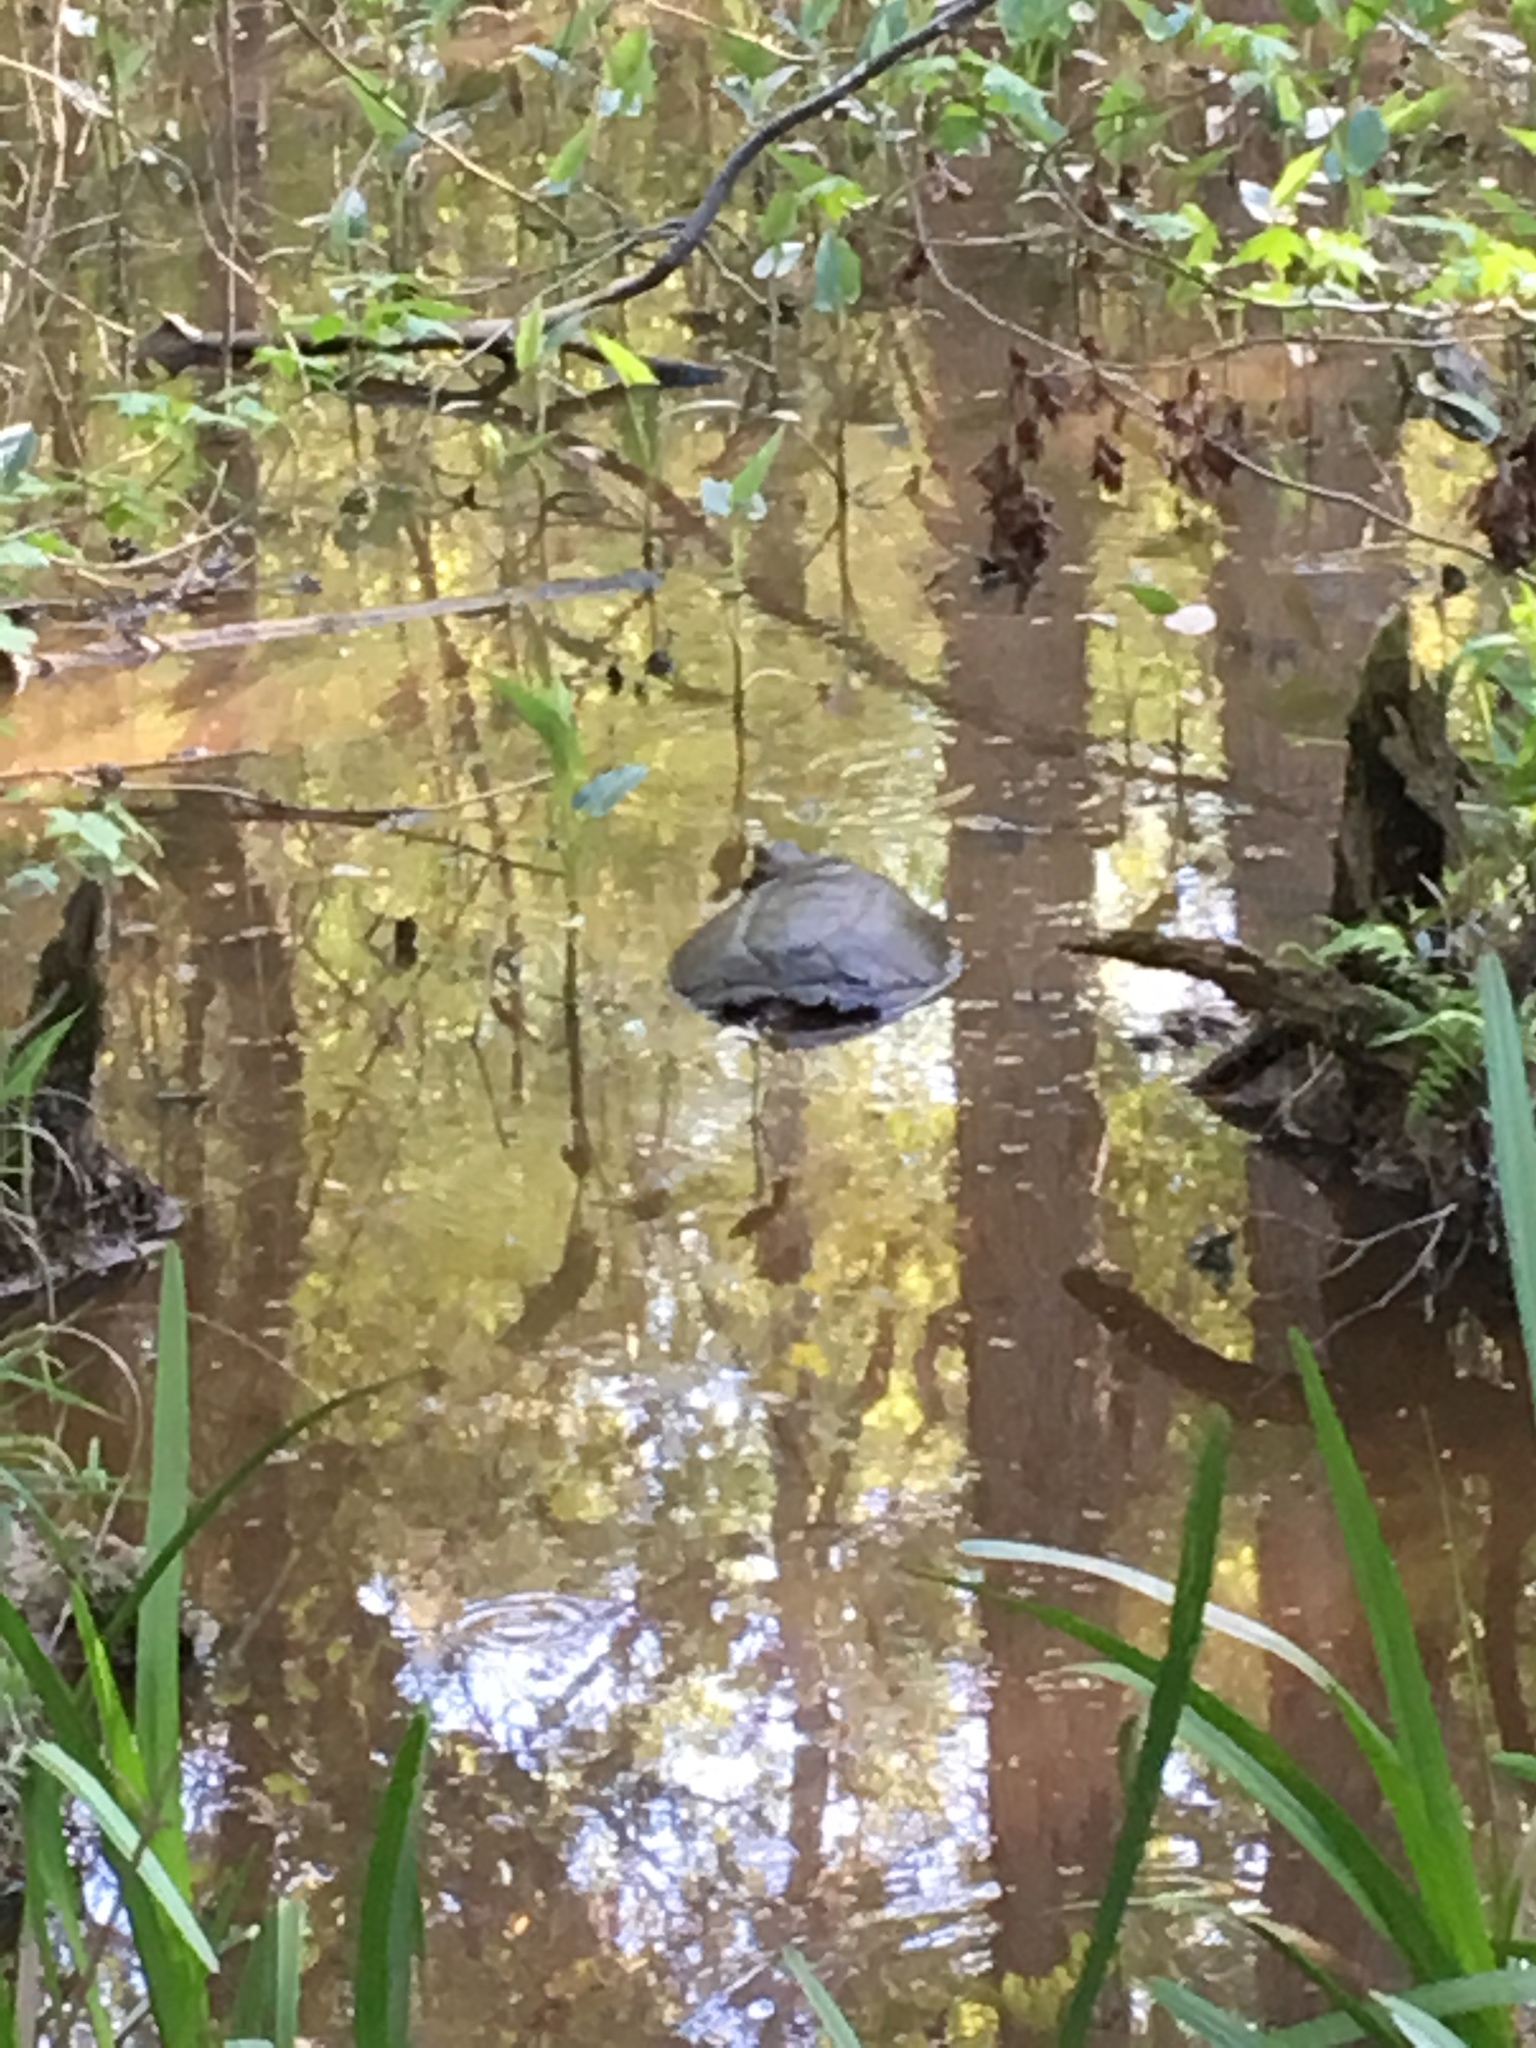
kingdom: Animalia
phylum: Chordata
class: Testudines
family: Chelydridae
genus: Chelydra
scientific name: Chelydra serpentina
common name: Common snapping turtle
